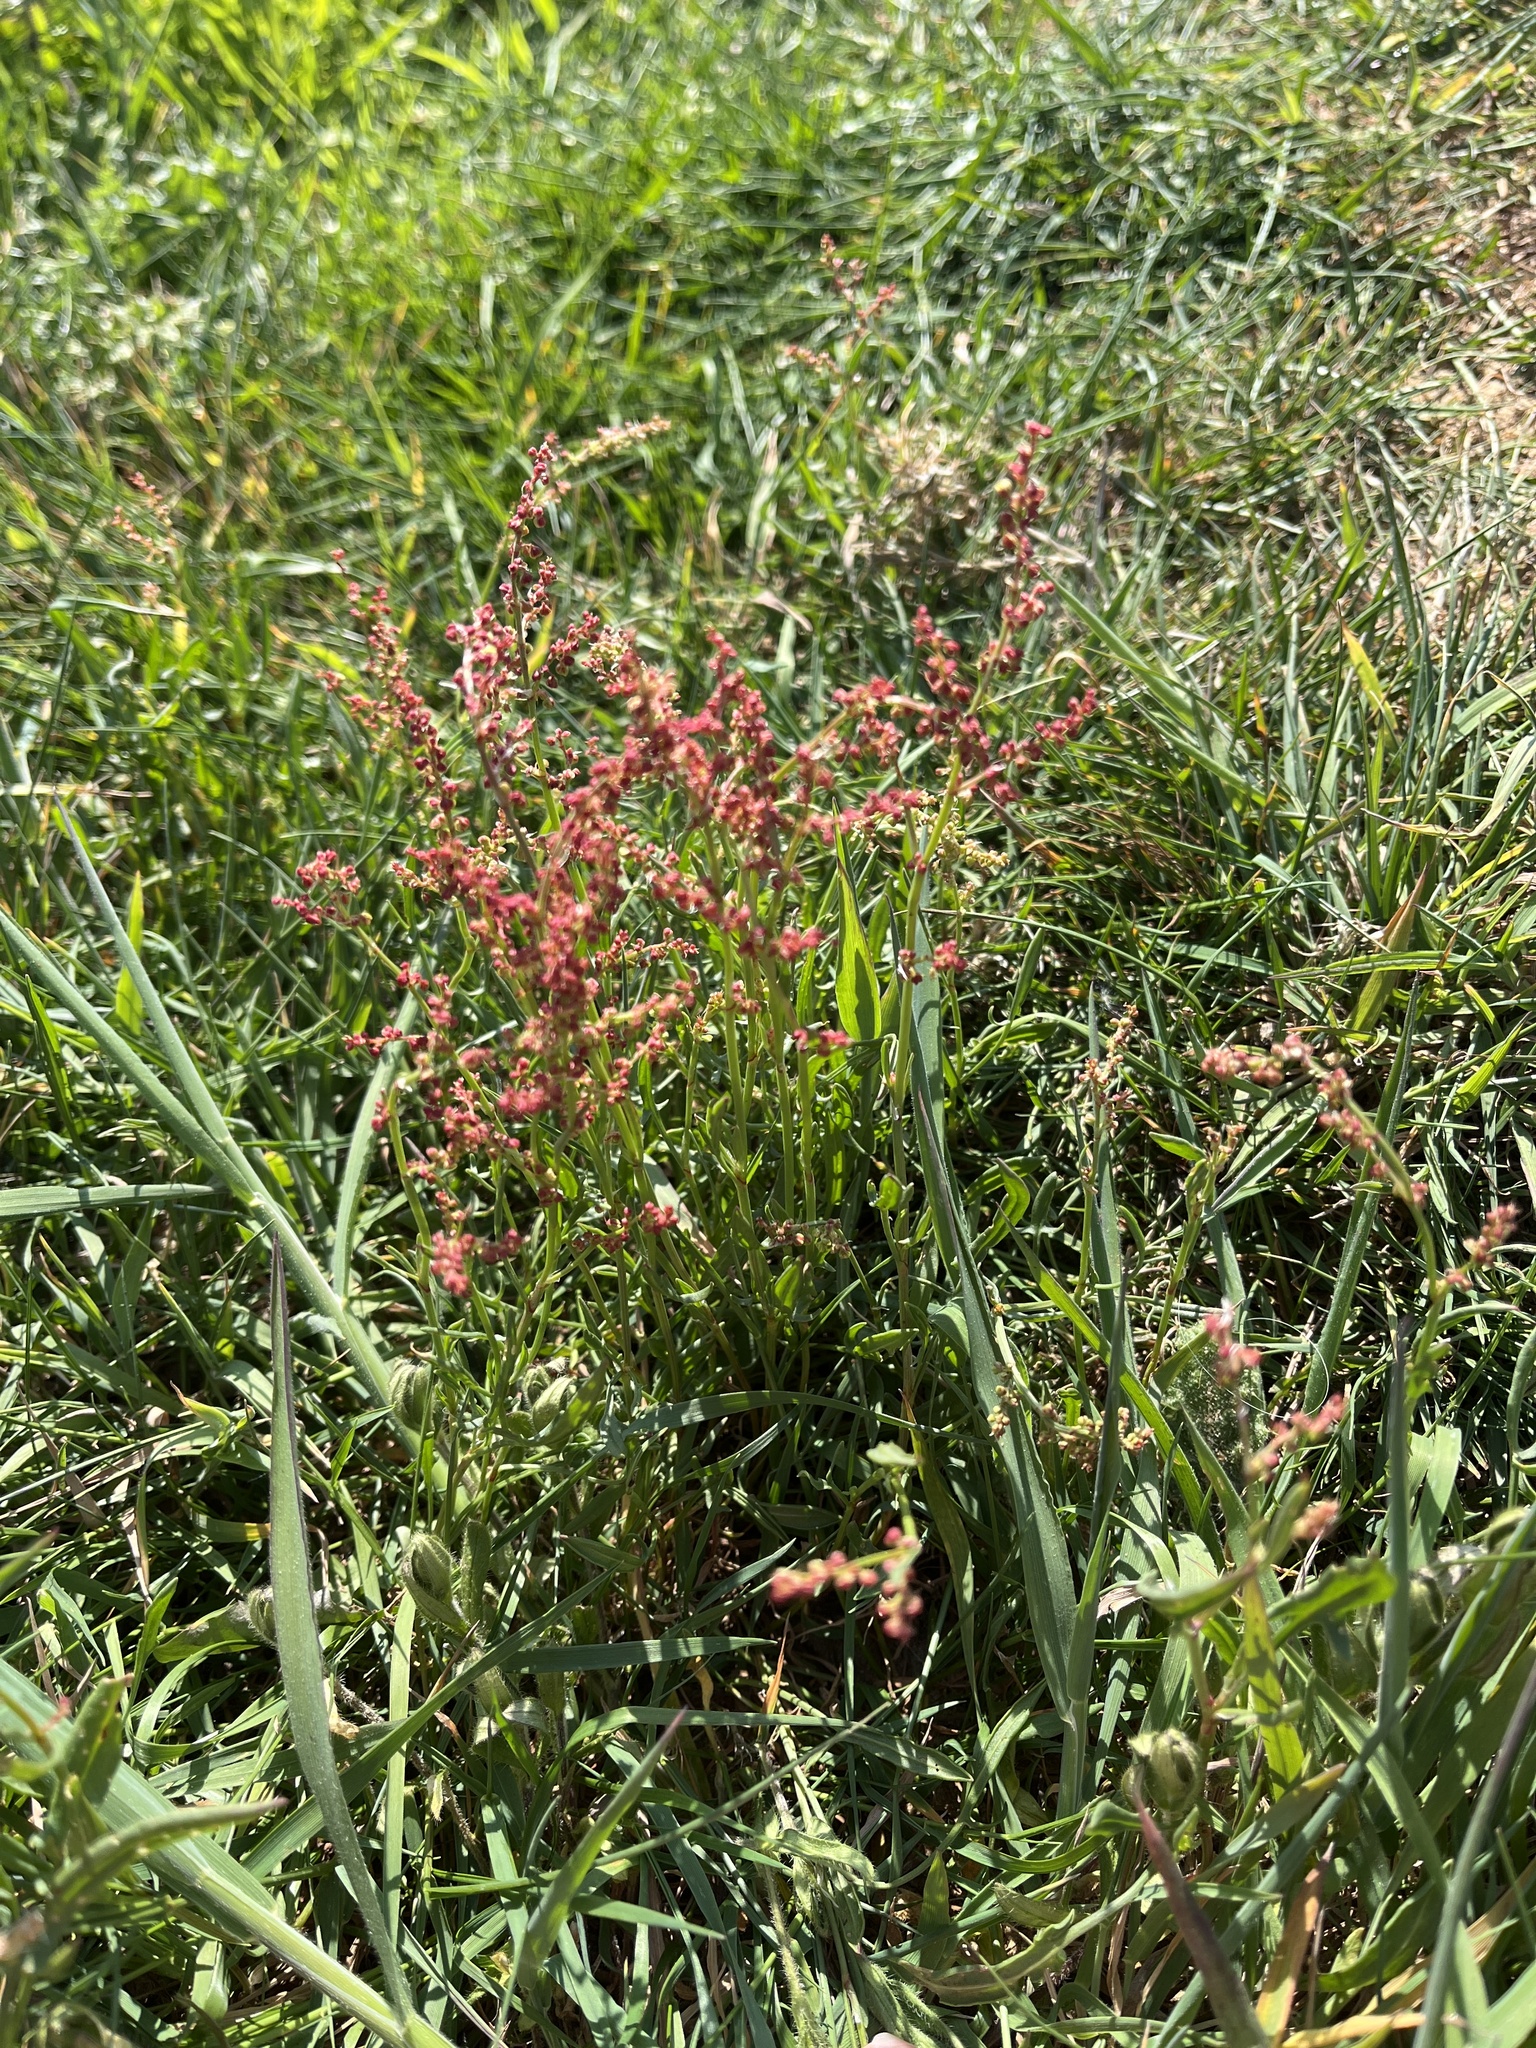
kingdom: Plantae
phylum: Tracheophyta
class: Magnoliopsida
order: Caryophyllales
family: Polygonaceae
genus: Rumex
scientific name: Rumex acetosella
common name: Common sheep sorrel
